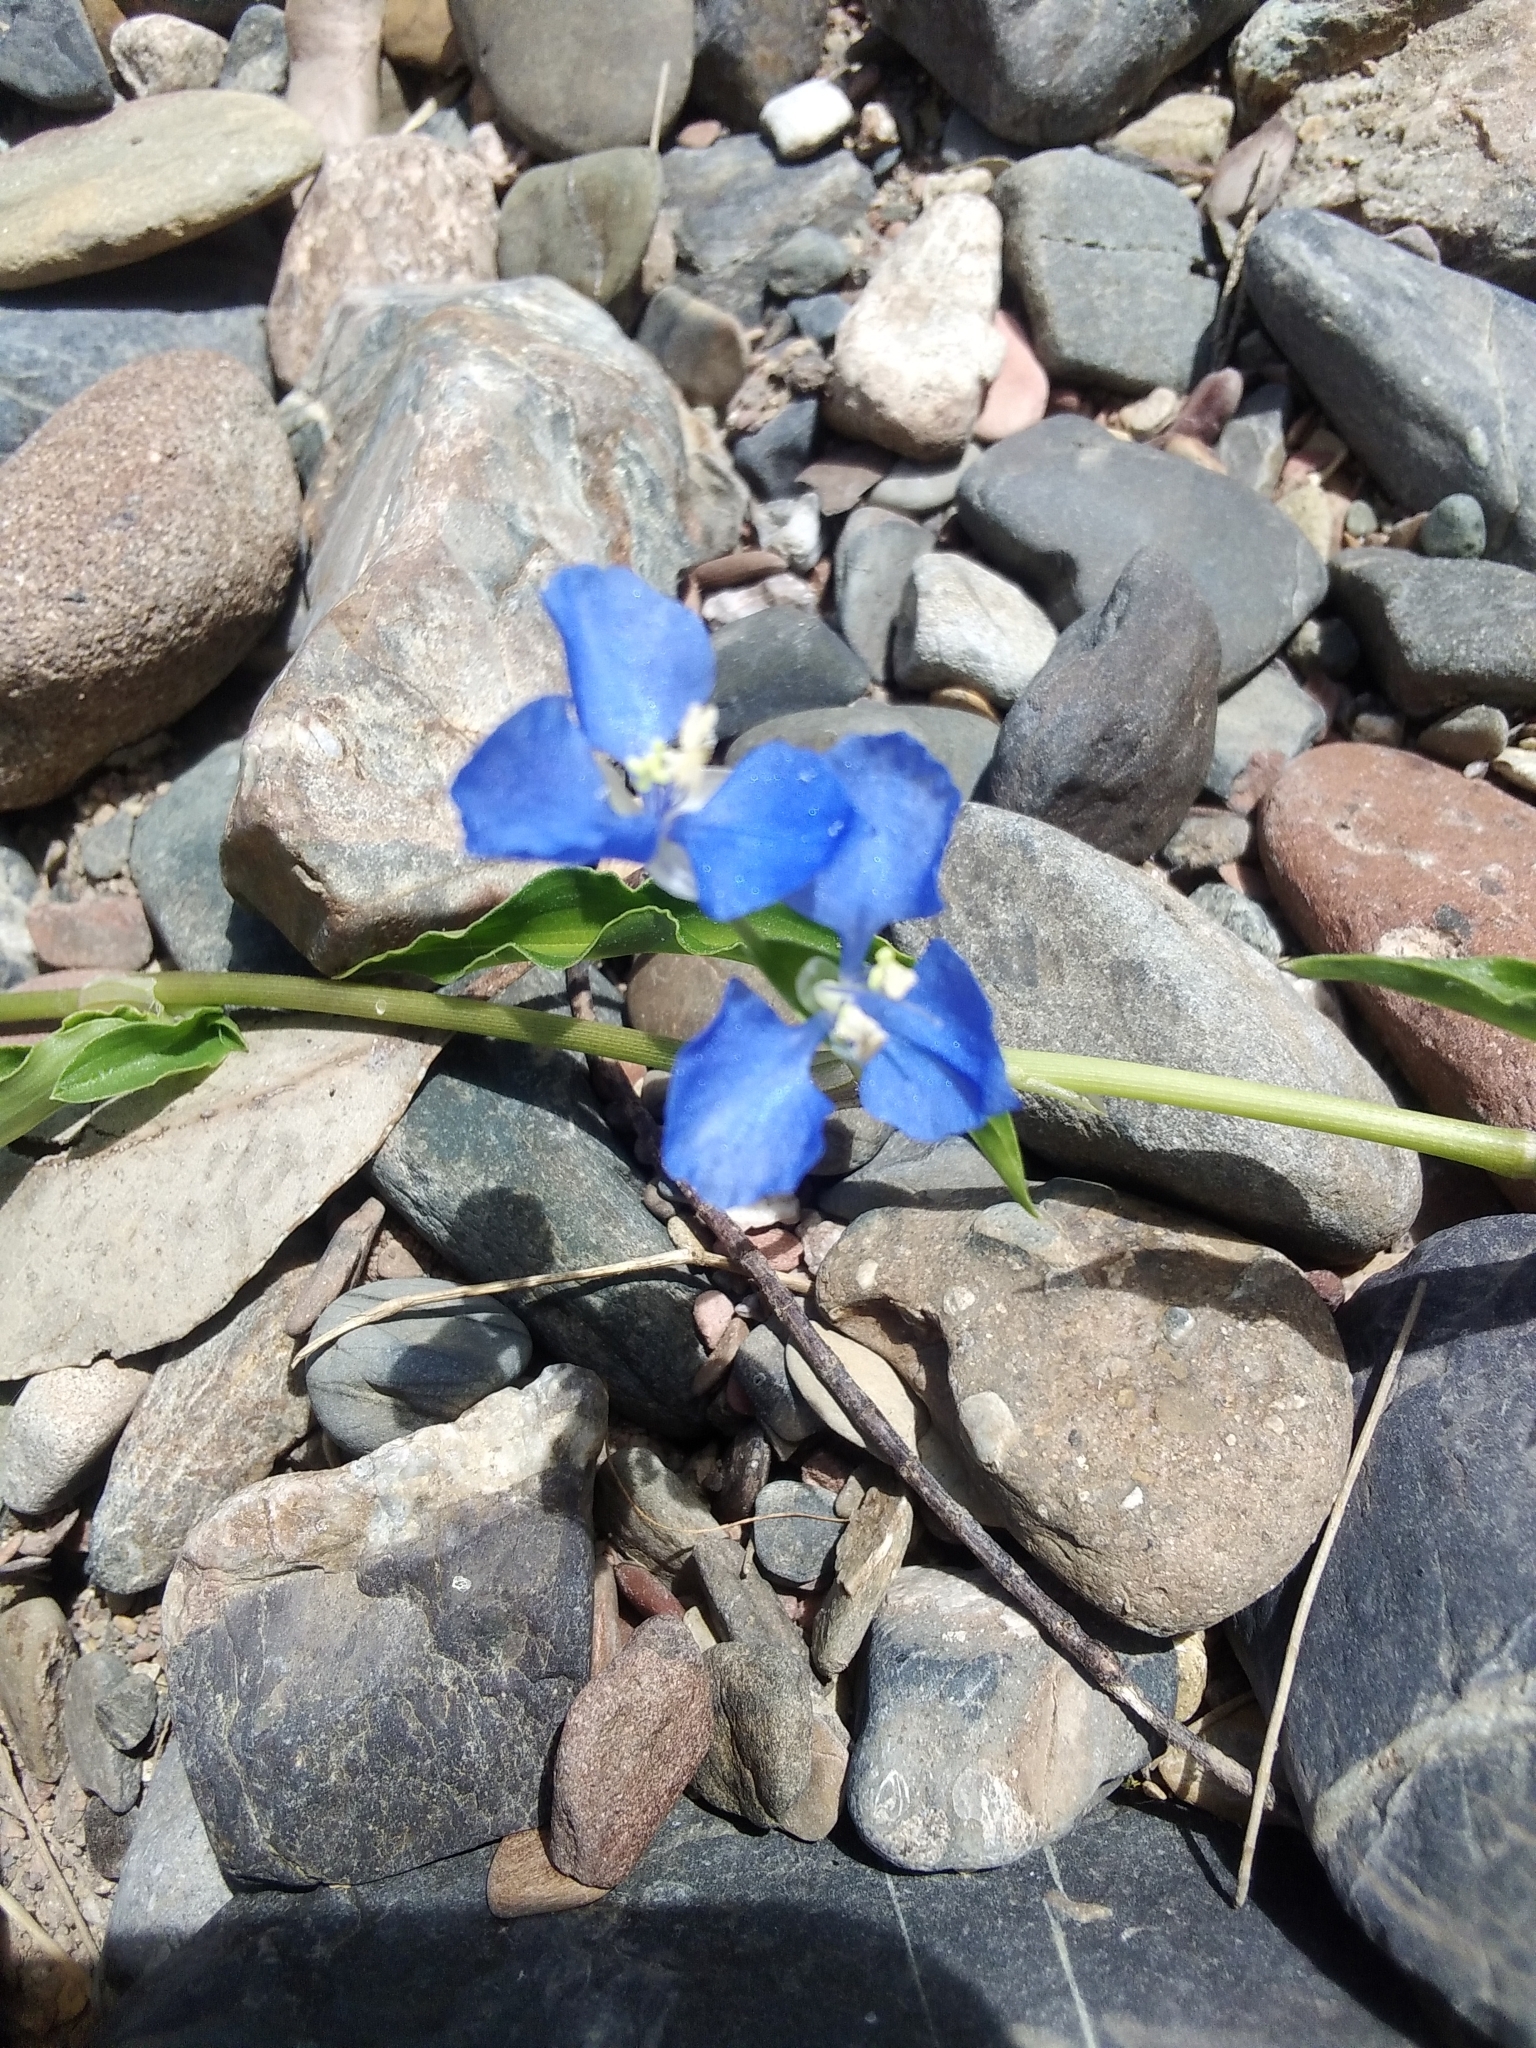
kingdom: Plantae
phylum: Tracheophyta
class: Liliopsida
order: Commelinales
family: Commelinaceae
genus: Commelina
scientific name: Commelina cyanea
